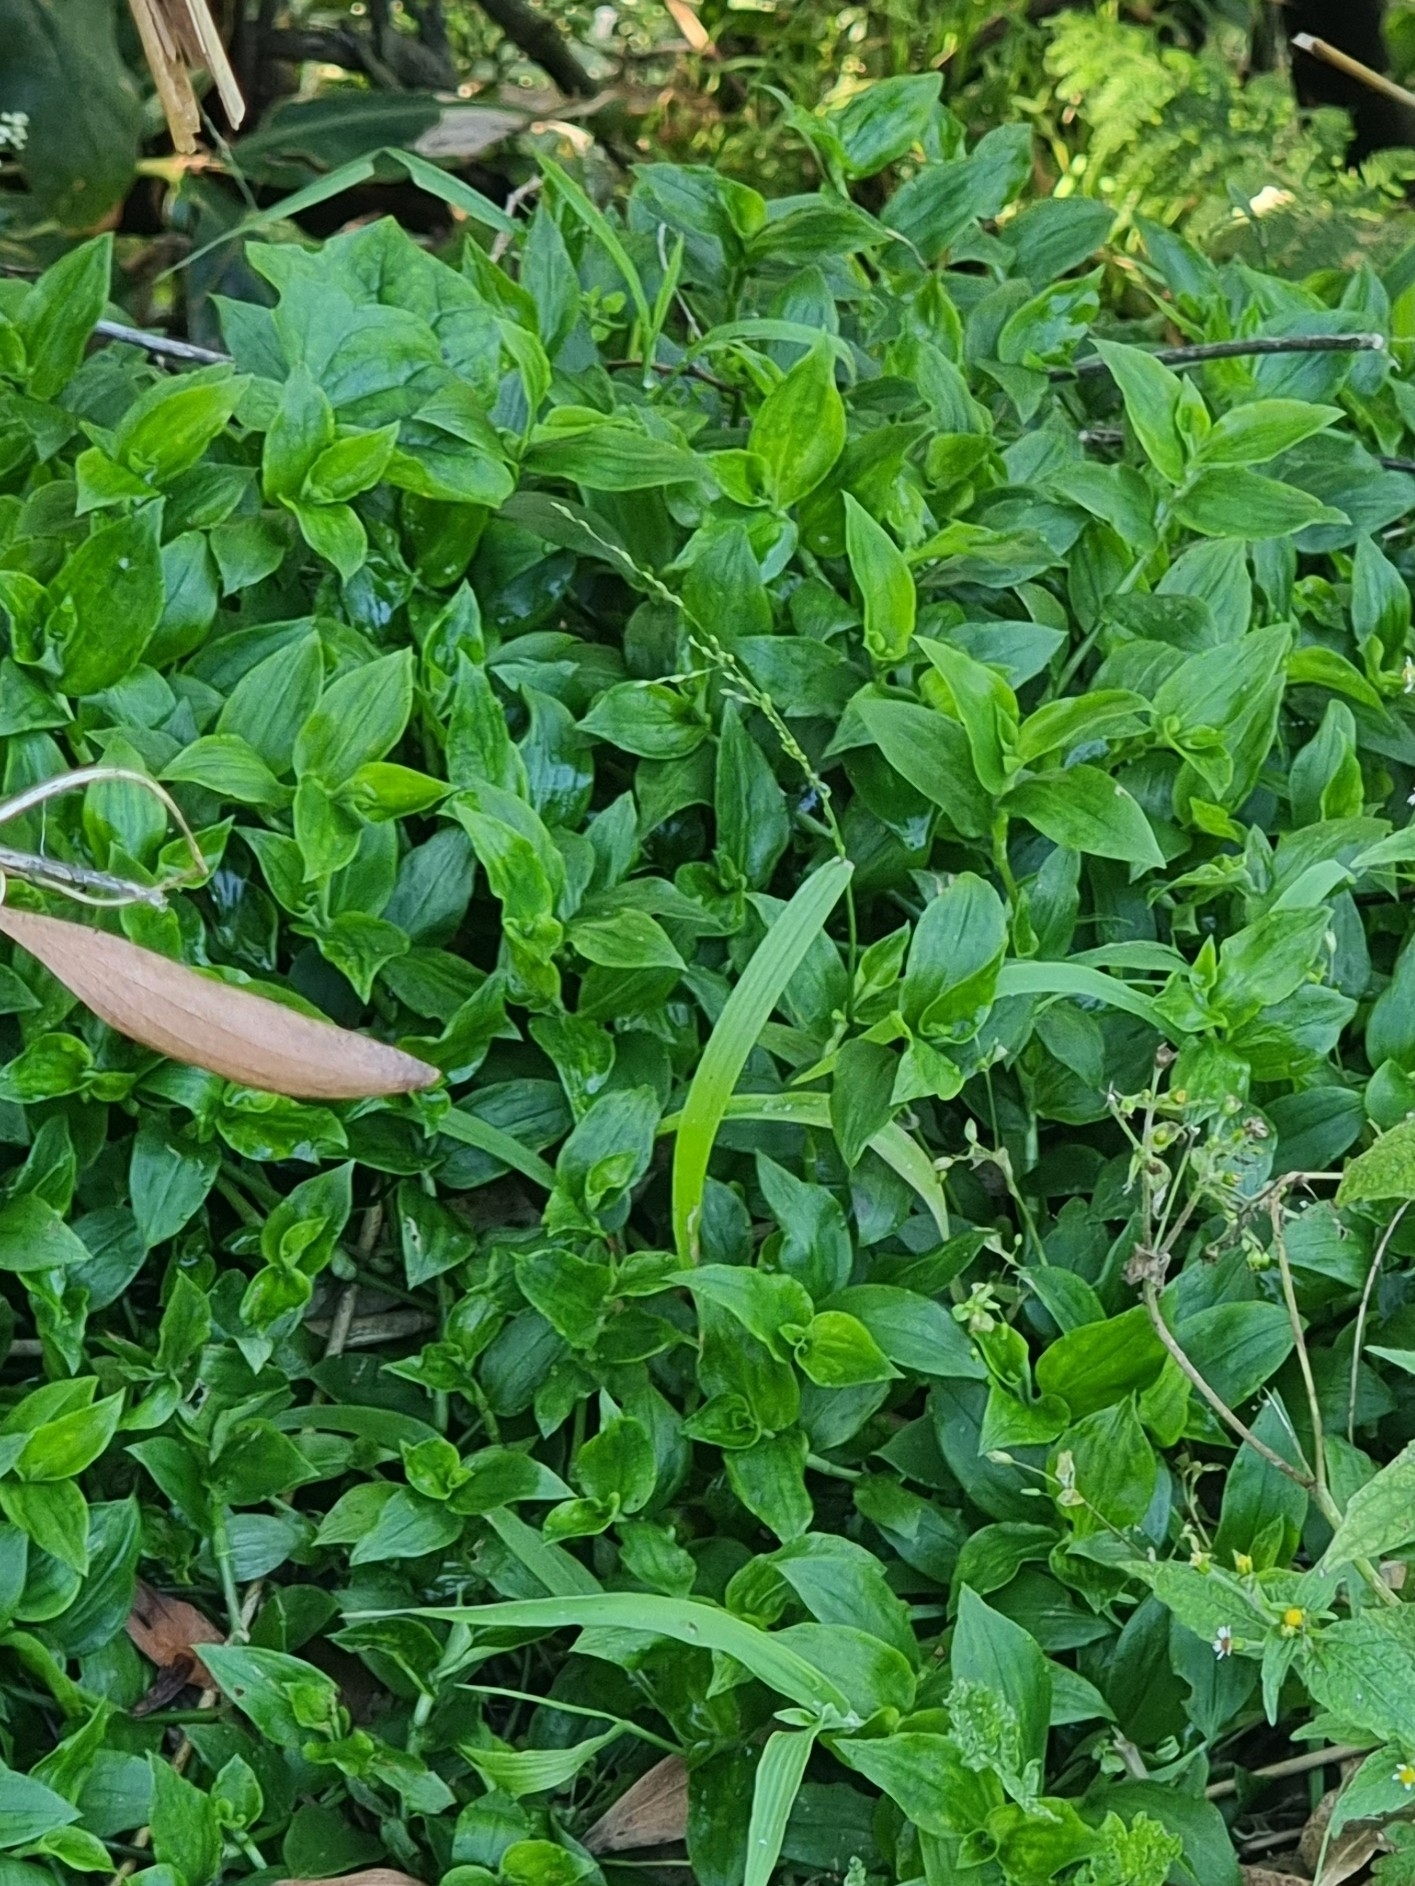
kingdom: Plantae
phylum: Tracheophyta
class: Liliopsida
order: Commelinales
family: Commelinaceae
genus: Tradescantia
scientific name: Tradescantia fluminensis
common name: Wandering-jew
